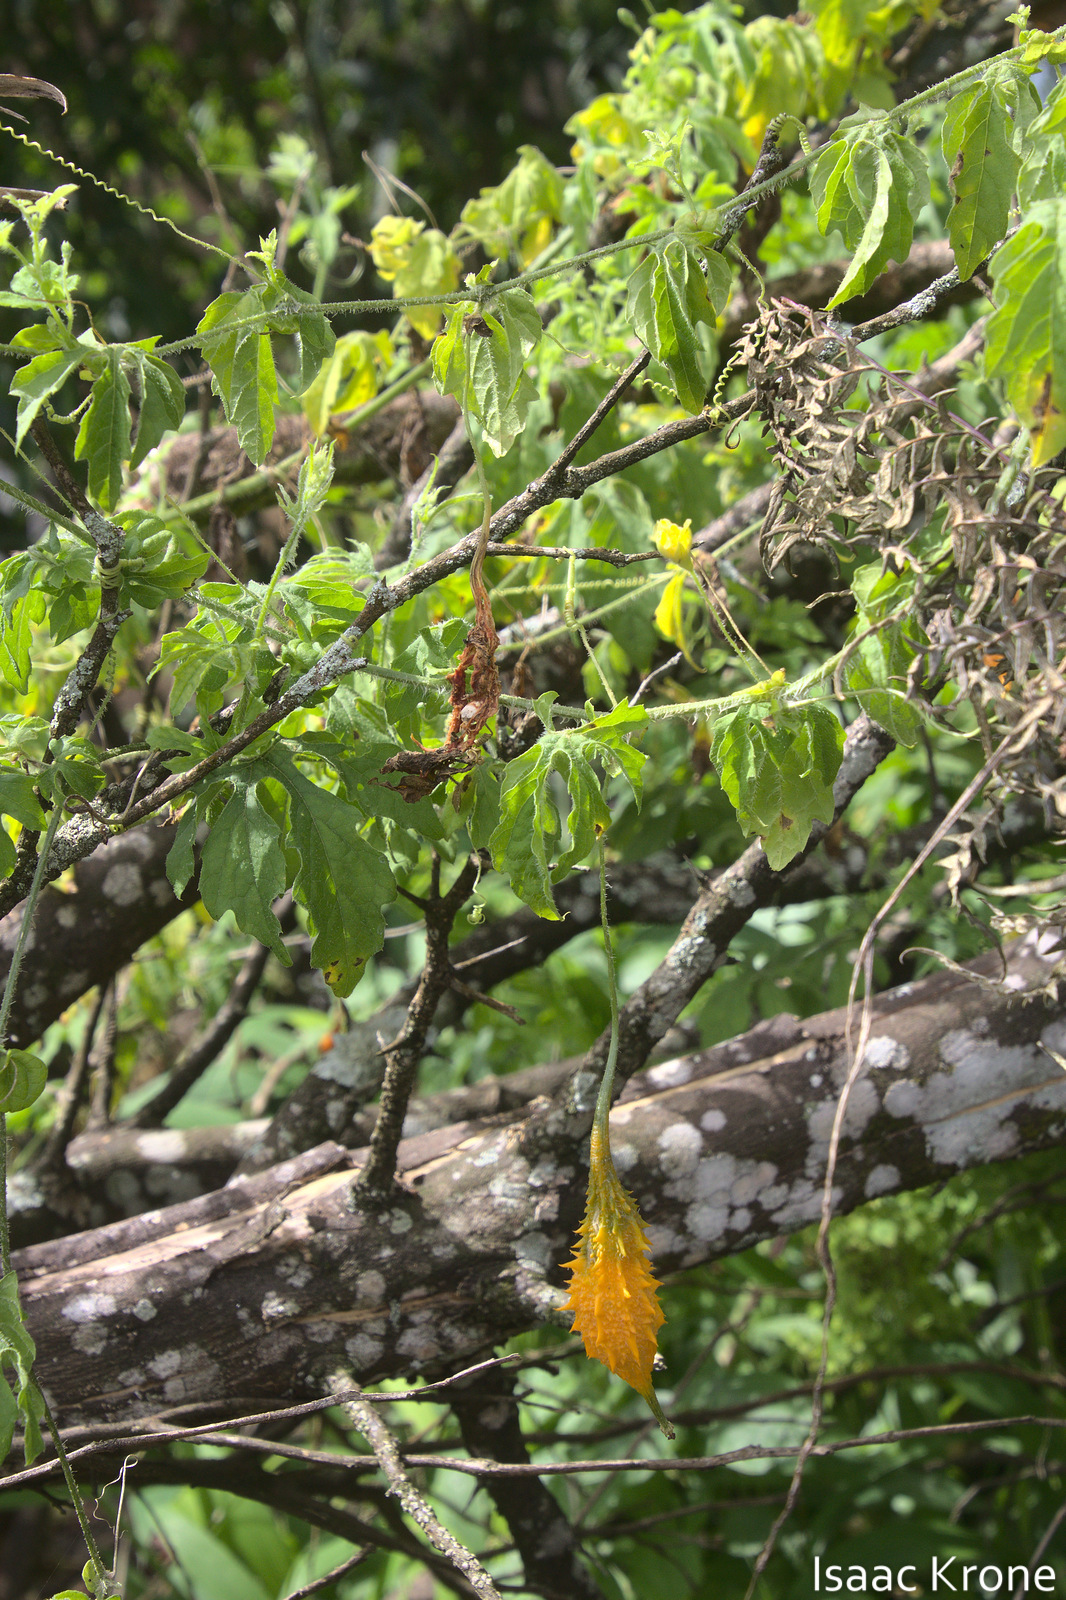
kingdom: Plantae
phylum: Tracheophyta
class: Magnoliopsida
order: Cucurbitales
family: Cucurbitaceae
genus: Momordica
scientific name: Momordica charantia
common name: Balsampear
